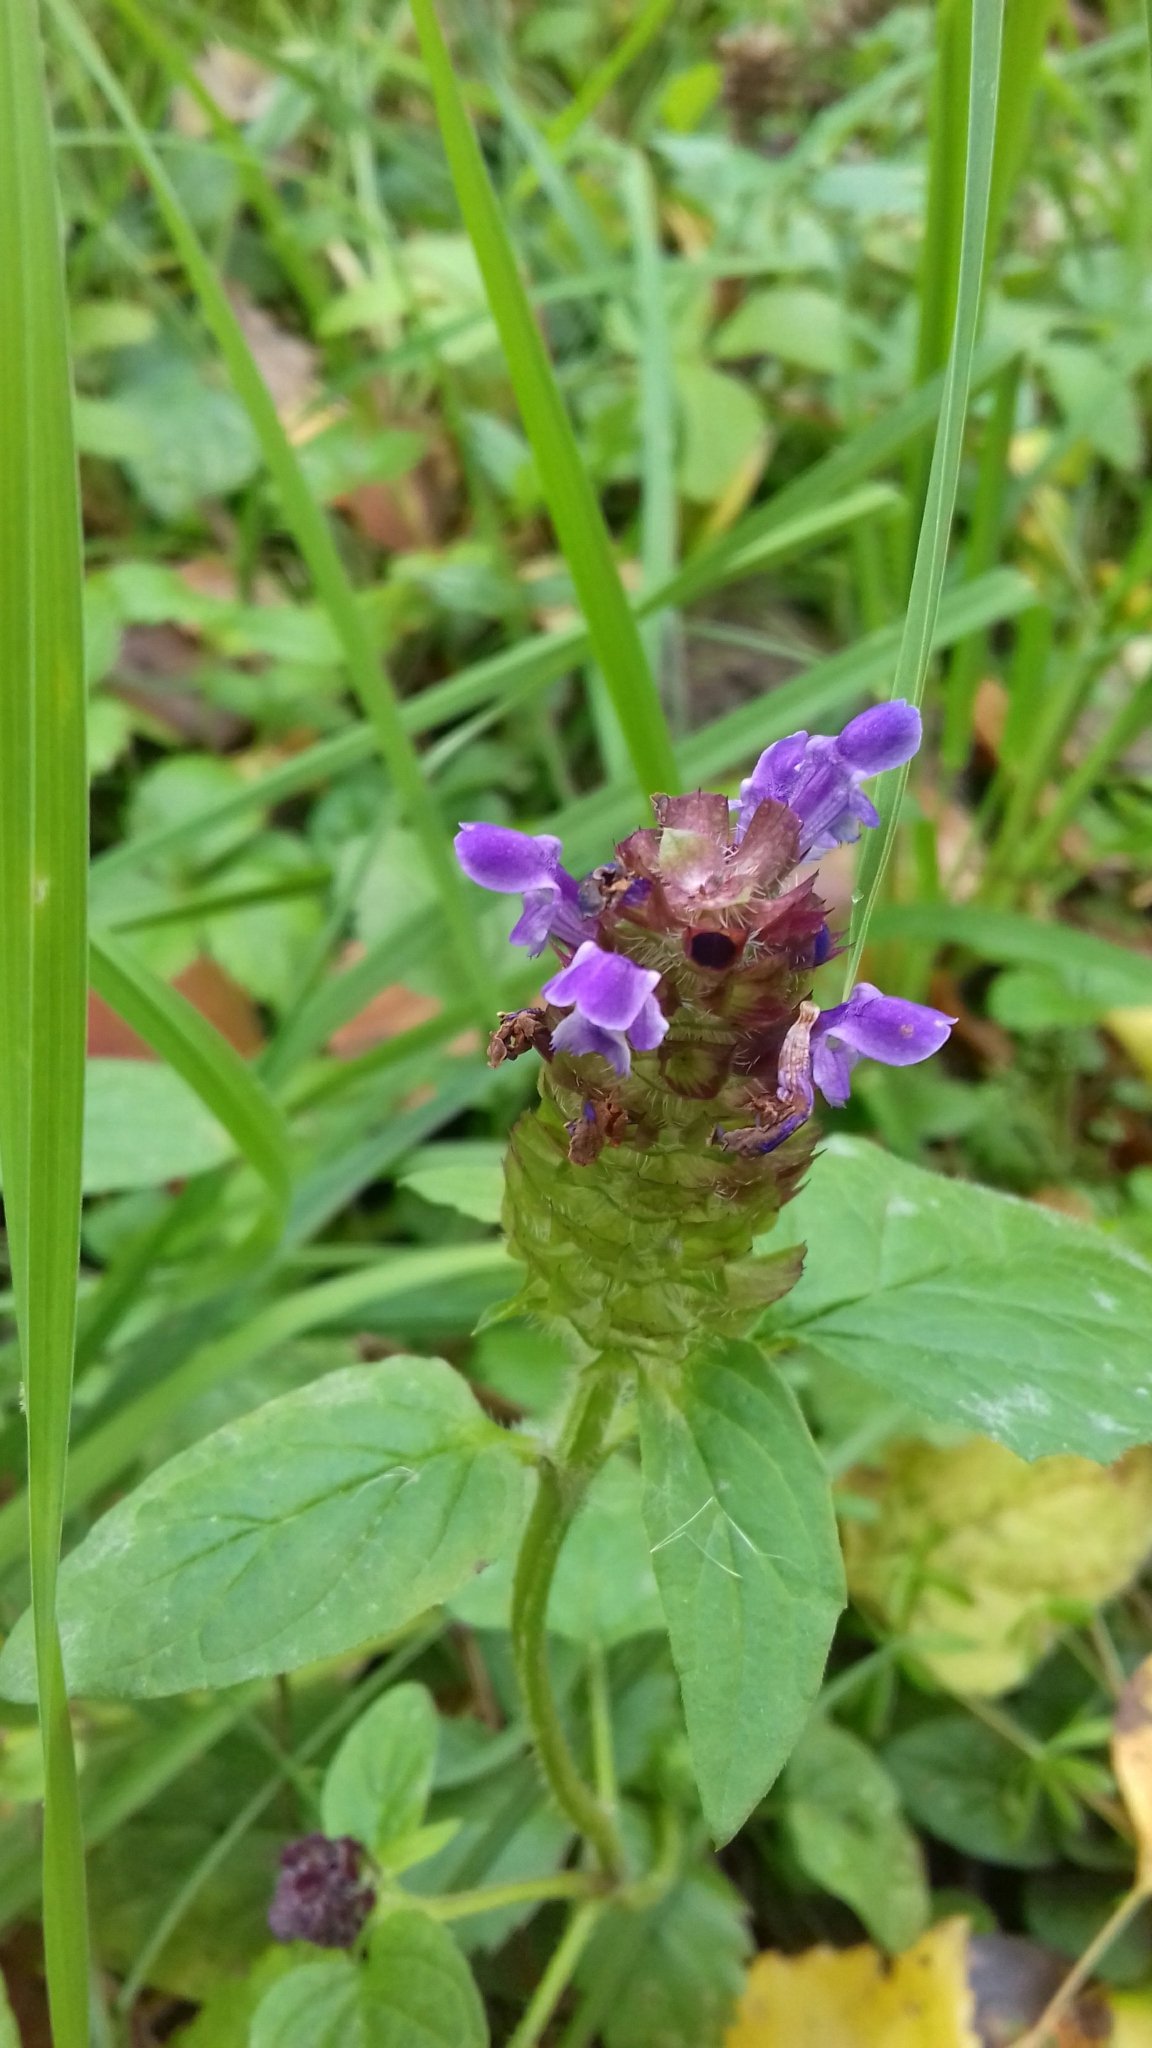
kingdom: Plantae
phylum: Tracheophyta
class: Magnoliopsida
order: Lamiales
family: Lamiaceae
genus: Prunella
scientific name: Prunella vulgaris
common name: Heal-all
